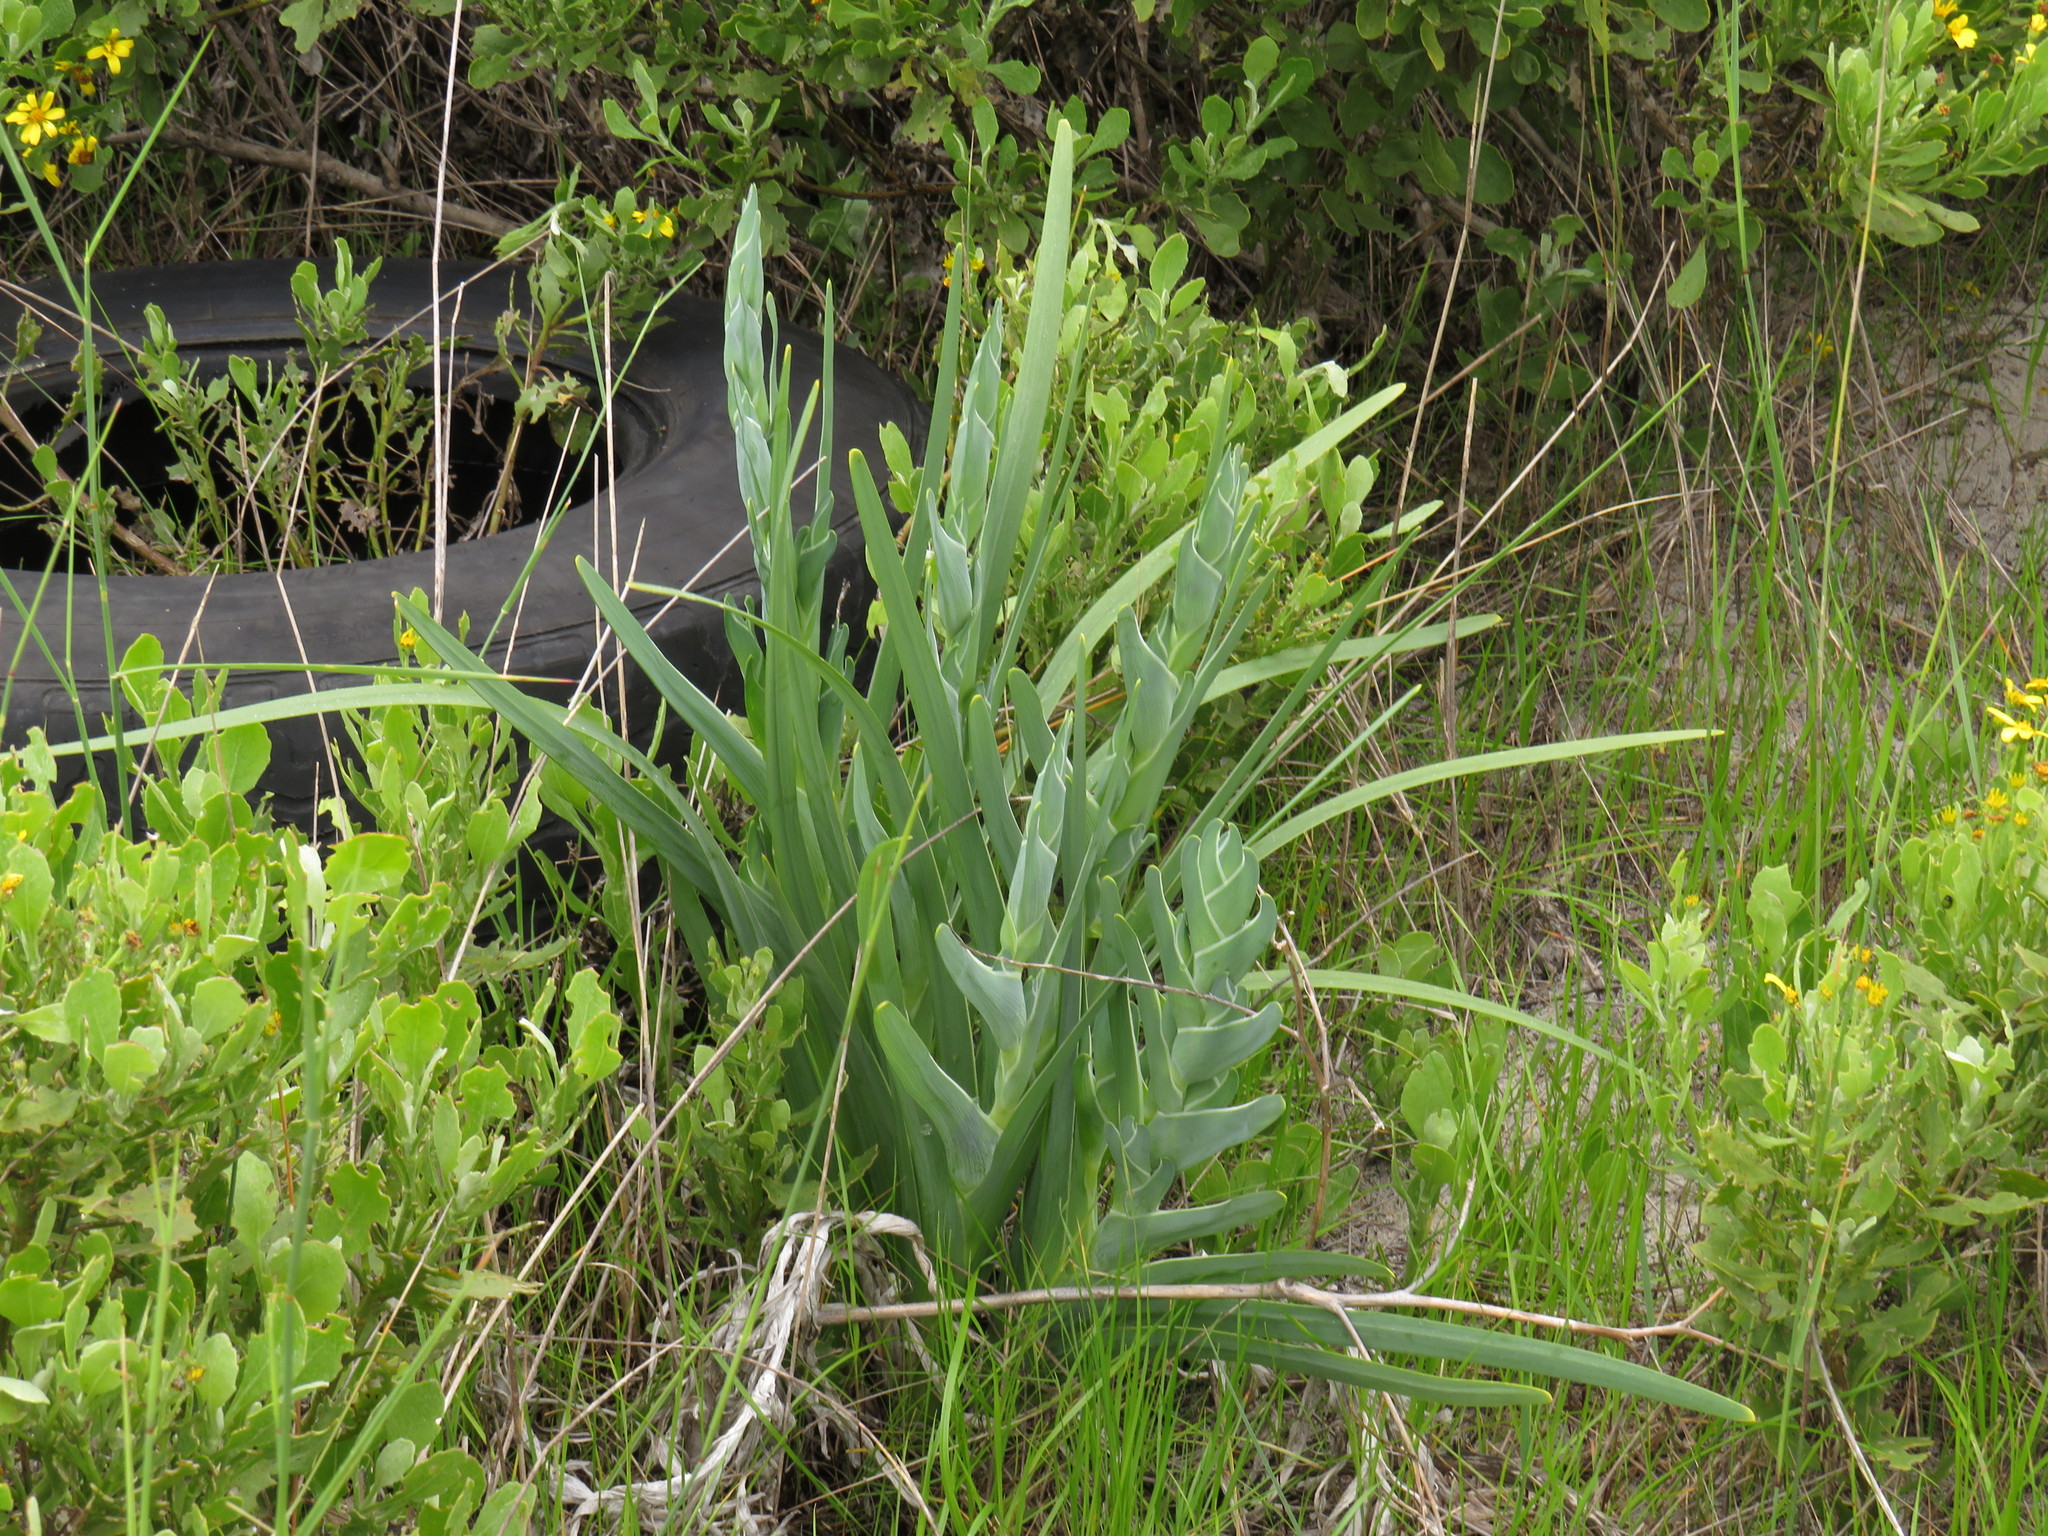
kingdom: Plantae
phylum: Tracheophyta
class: Liliopsida
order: Asparagales
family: Iridaceae
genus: Ferraria
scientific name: Ferraria crispa
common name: Black-flag
